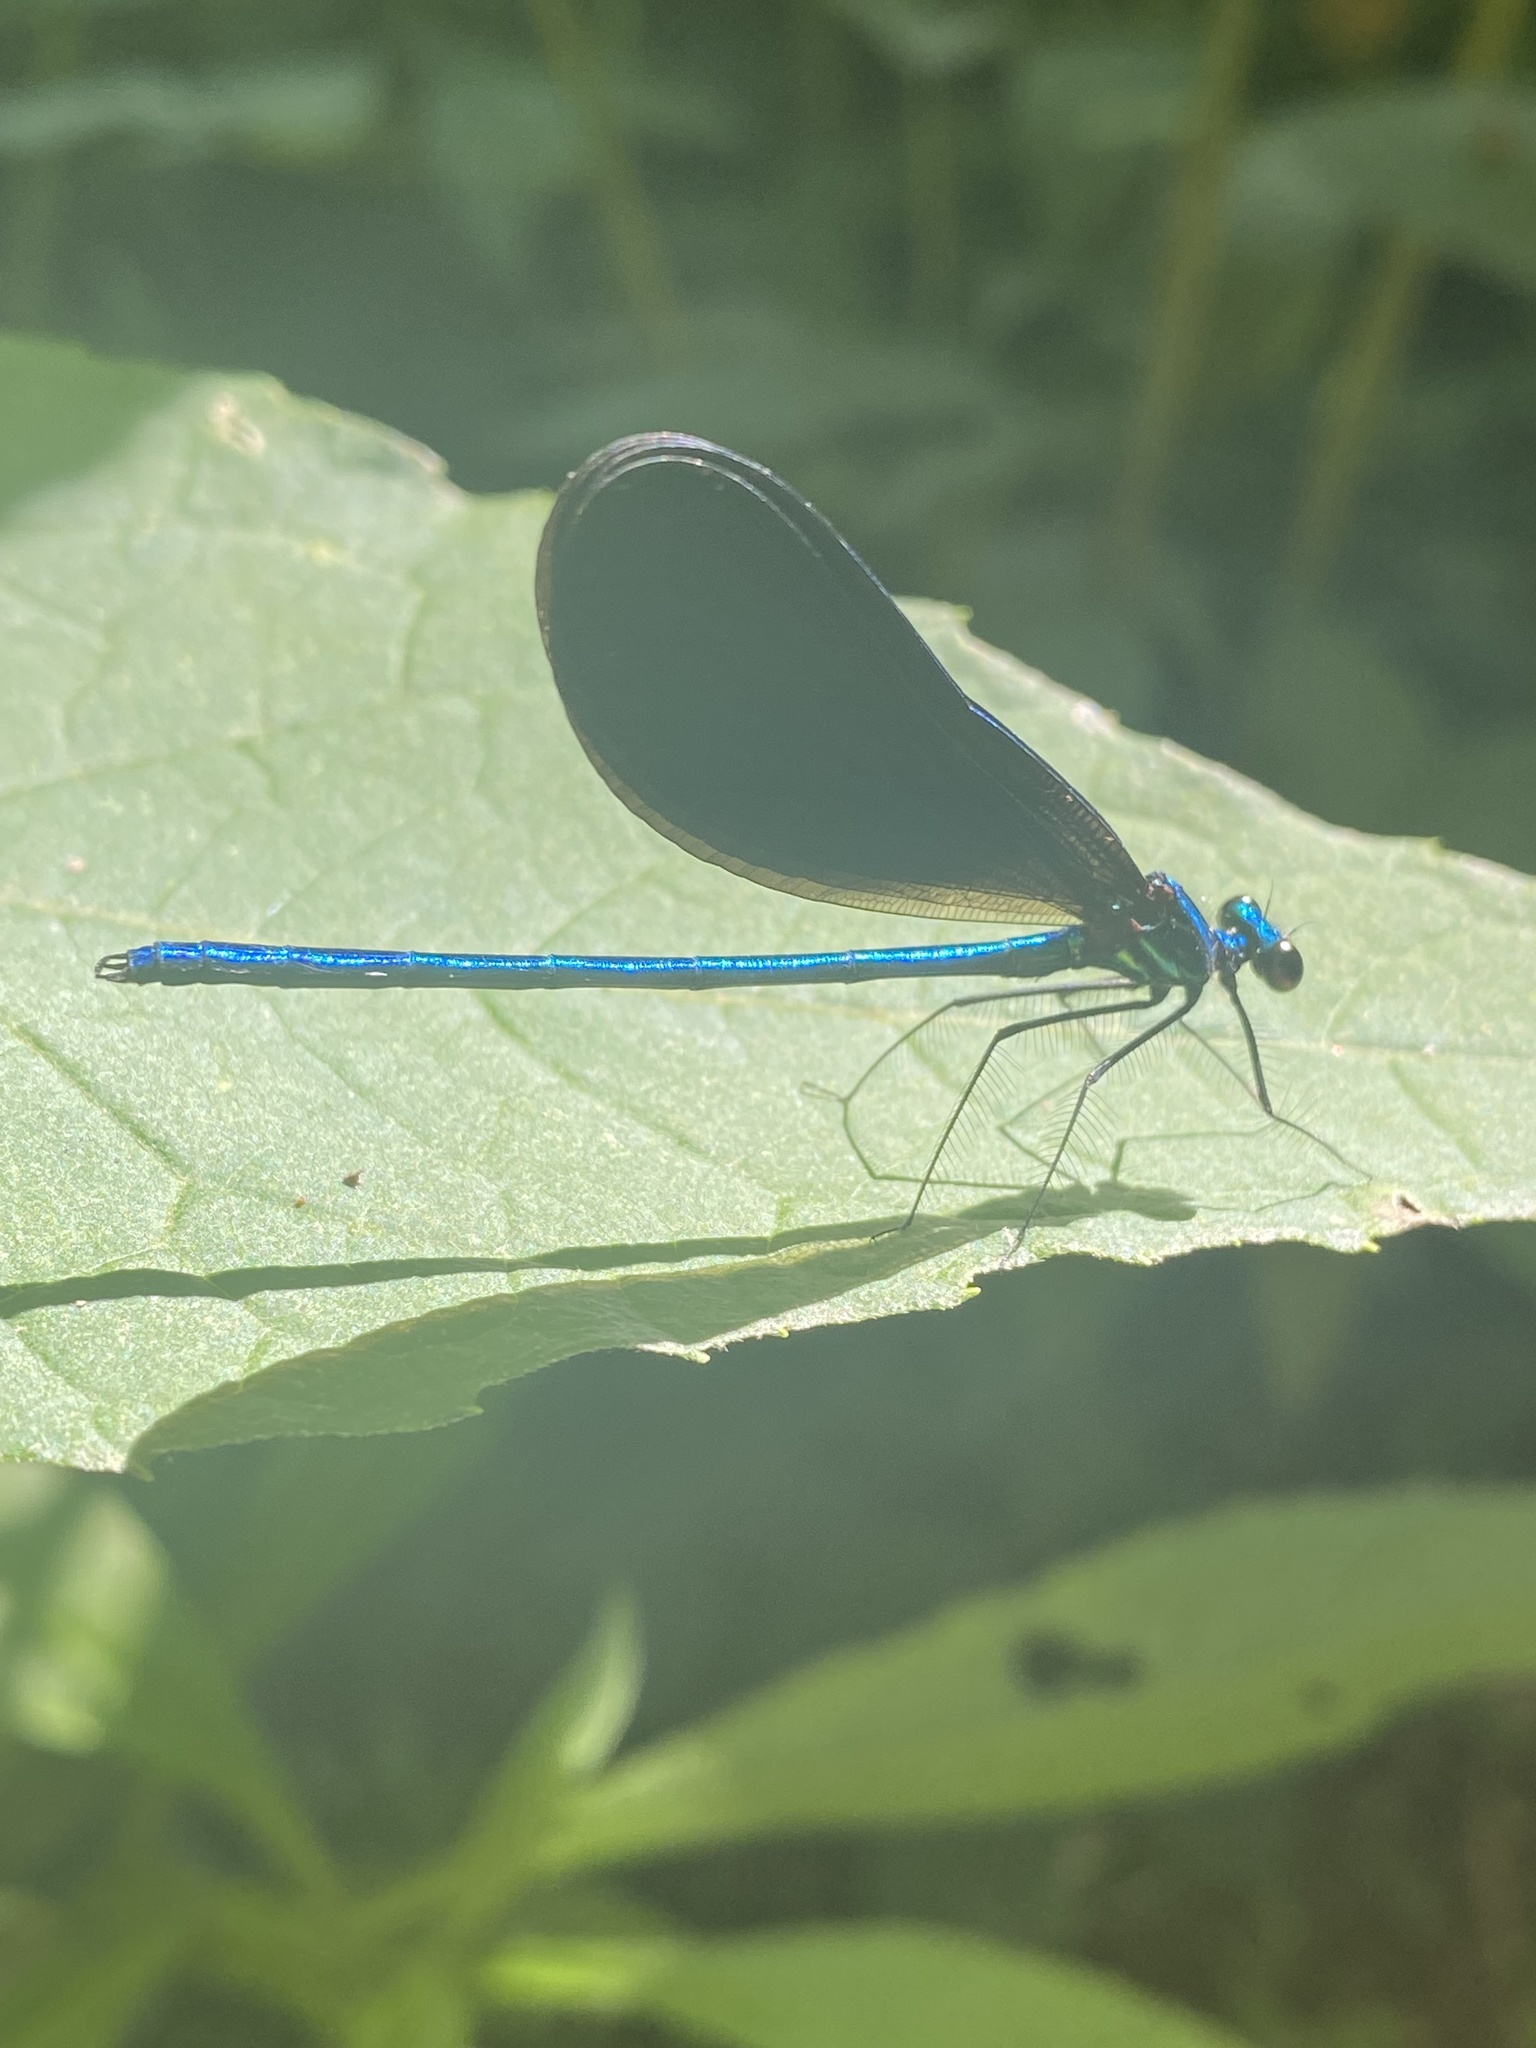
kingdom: Animalia
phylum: Arthropoda
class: Insecta
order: Odonata
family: Calopterygidae
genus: Calopteryx
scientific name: Calopteryx maculata
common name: Ebony jewelwing
